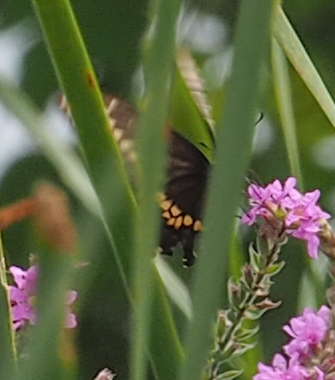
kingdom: Animalia
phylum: Arthropoda
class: Insecta
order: Lepidoptera
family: Papilionidae
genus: Papilio
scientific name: Papilio polyxenes
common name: Black swallowtail
